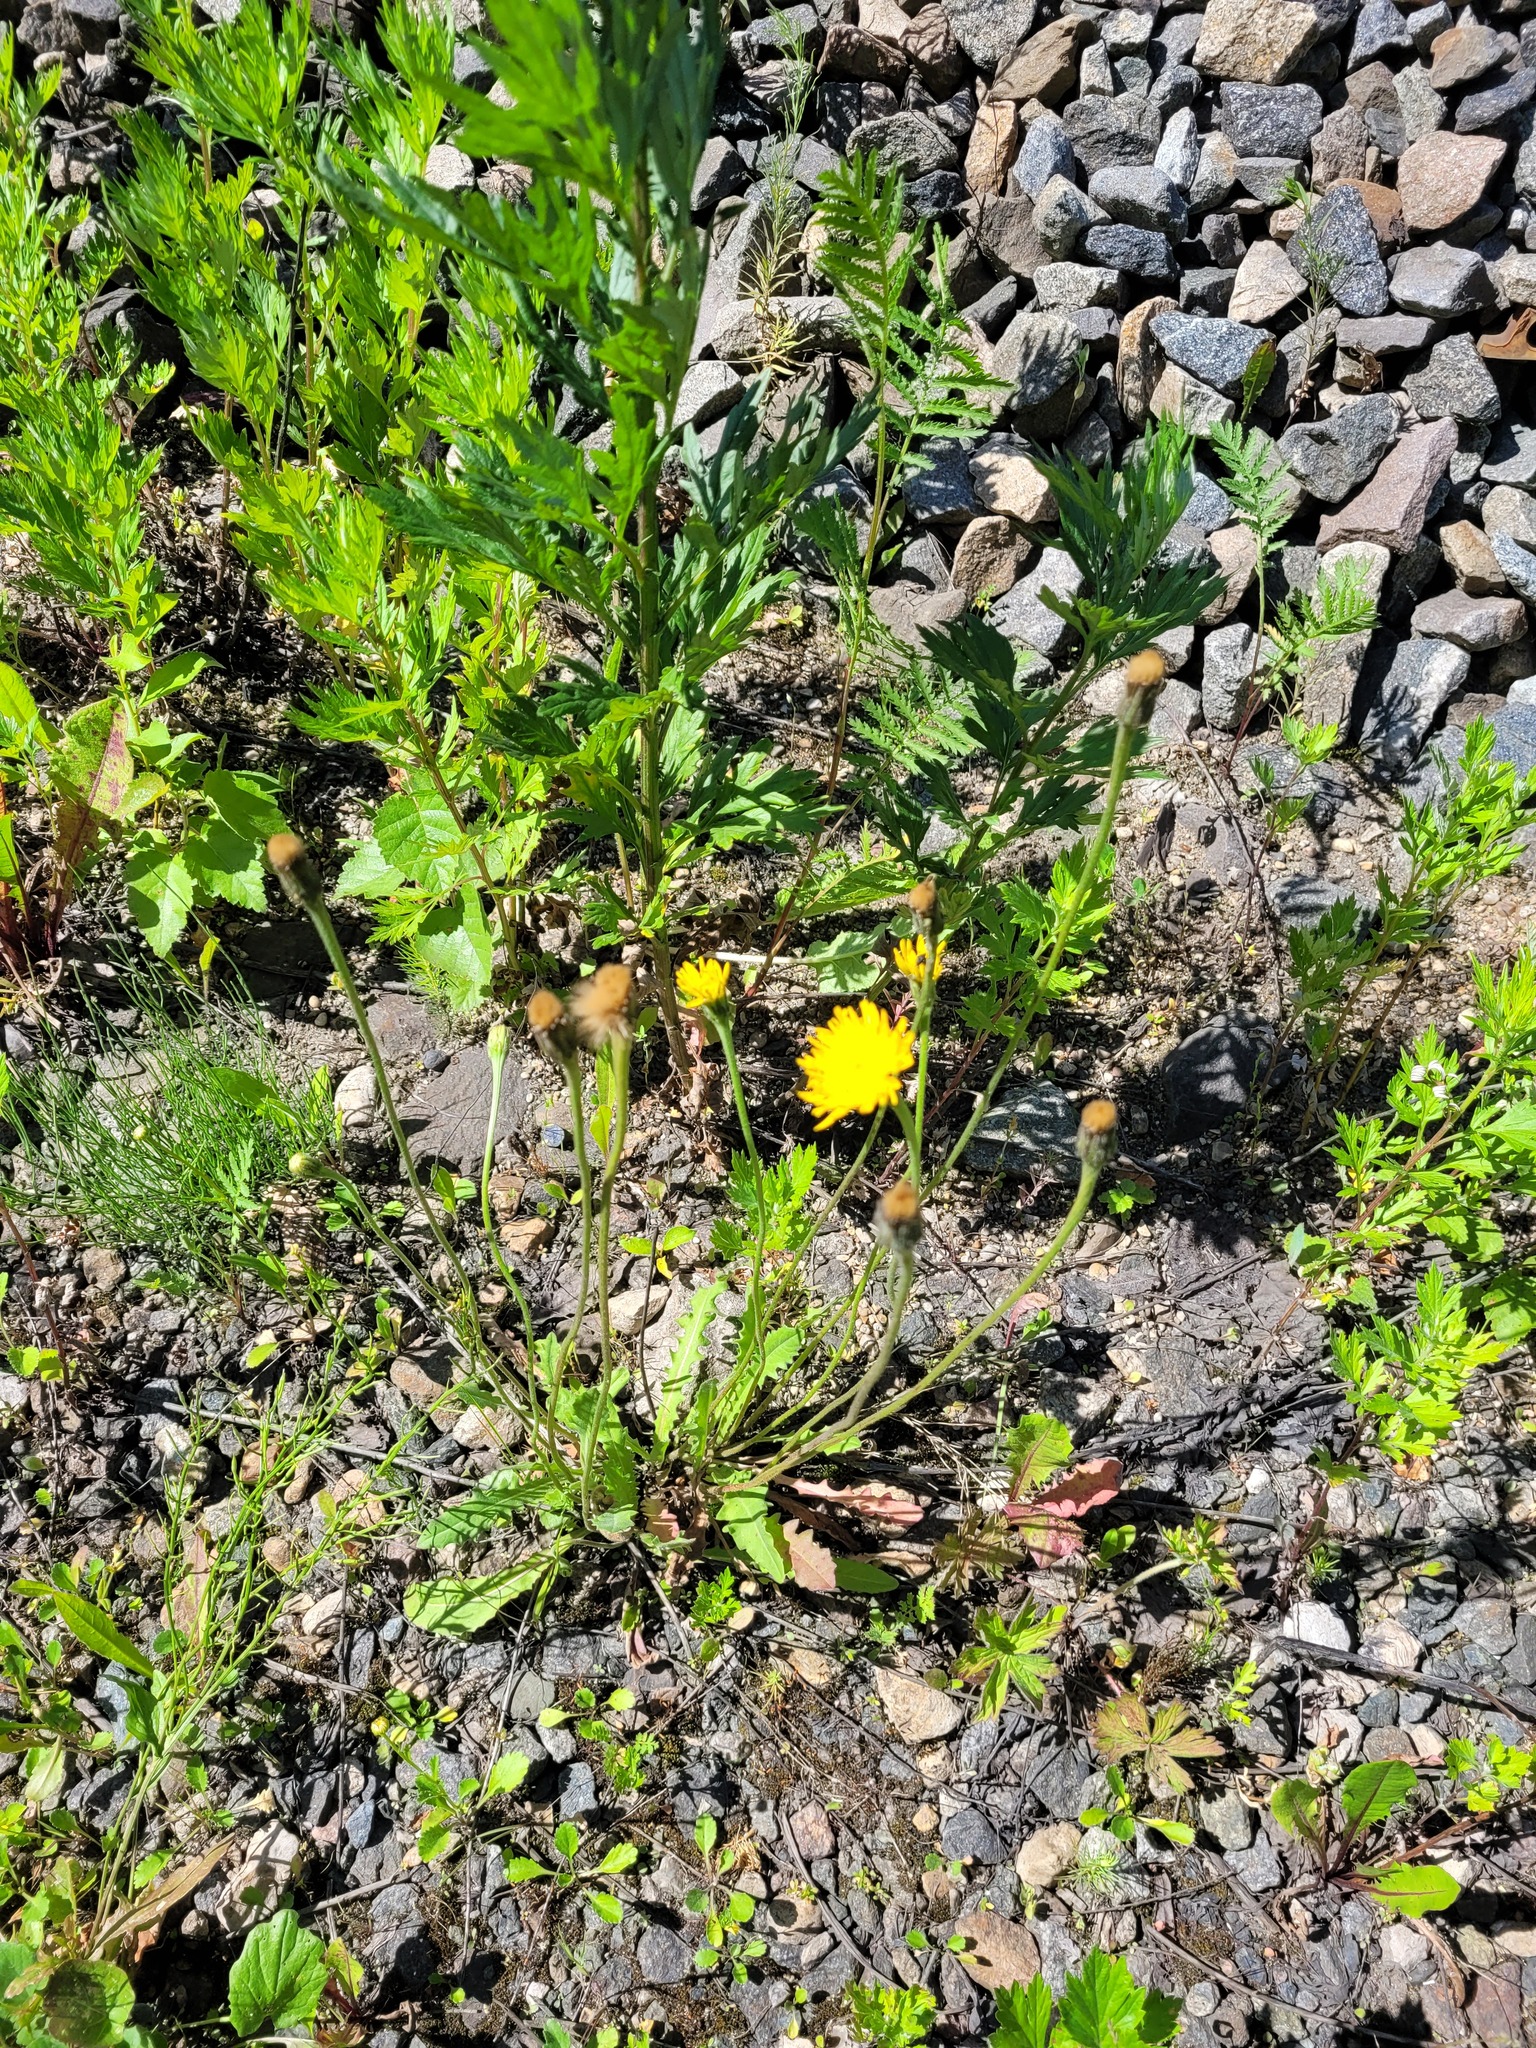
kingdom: Plantae
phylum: Tracheophyta
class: Magnoliopsida
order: Asterales
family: Asteraceae
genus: Leontodon
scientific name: Leontodon hispidus
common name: Rough hawkbit
